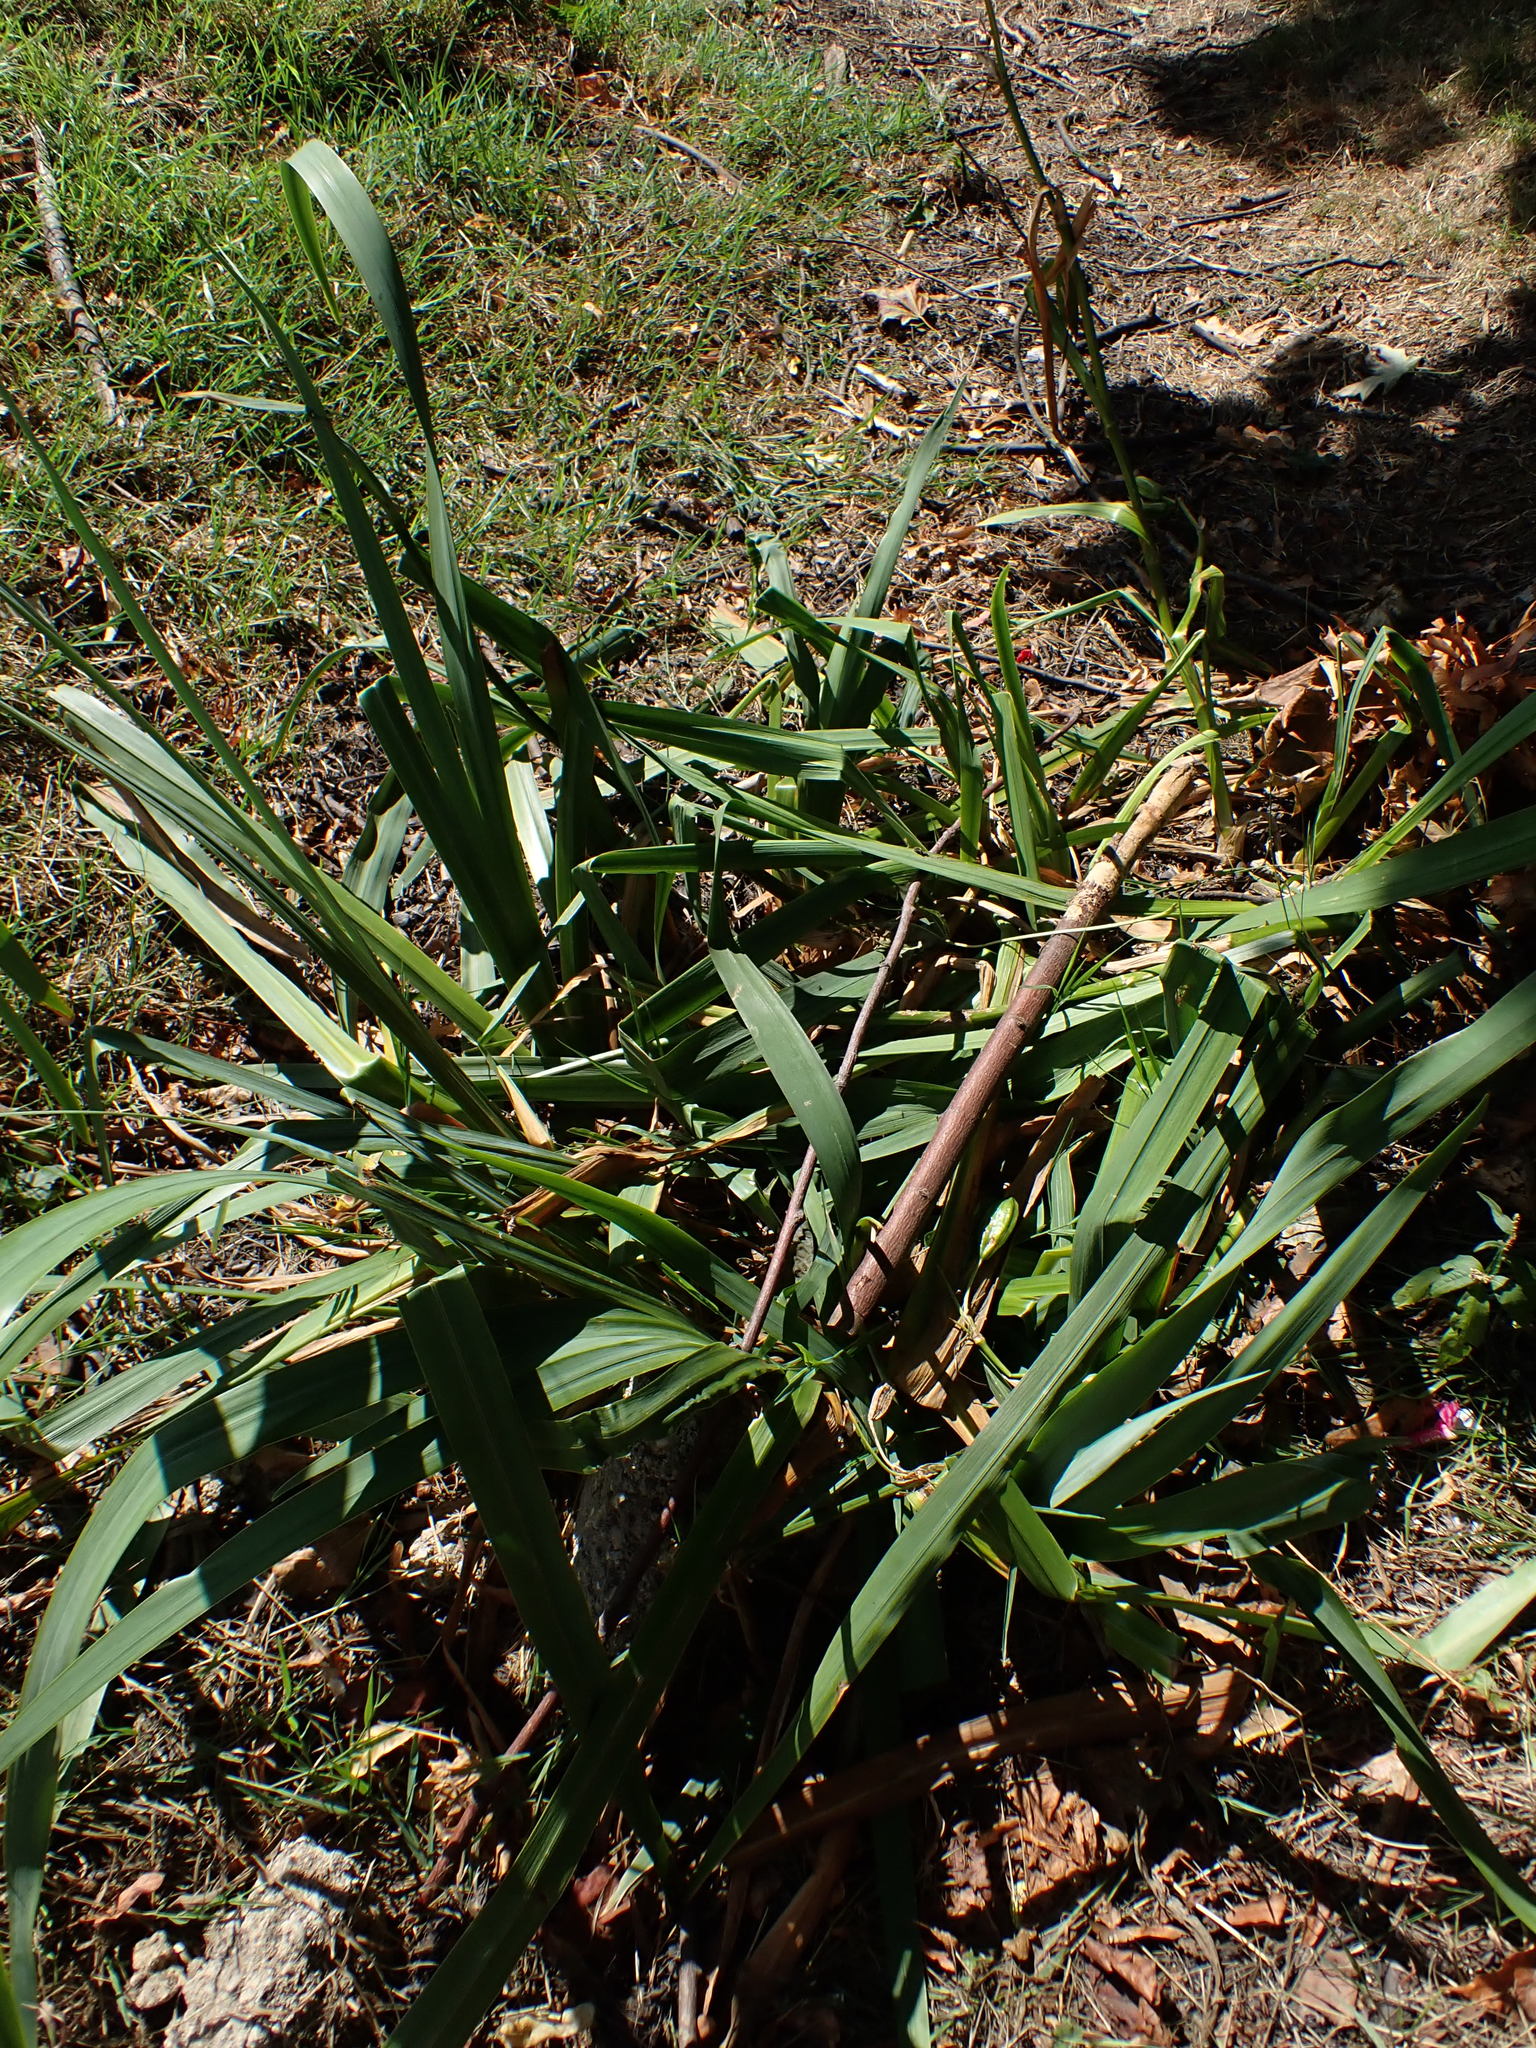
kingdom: Plantae
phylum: Tracheophyta
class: Liliopsida
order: Asparagales
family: Iridaceae
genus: Iris
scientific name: Iris pseudacorus
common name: Yellow flag
